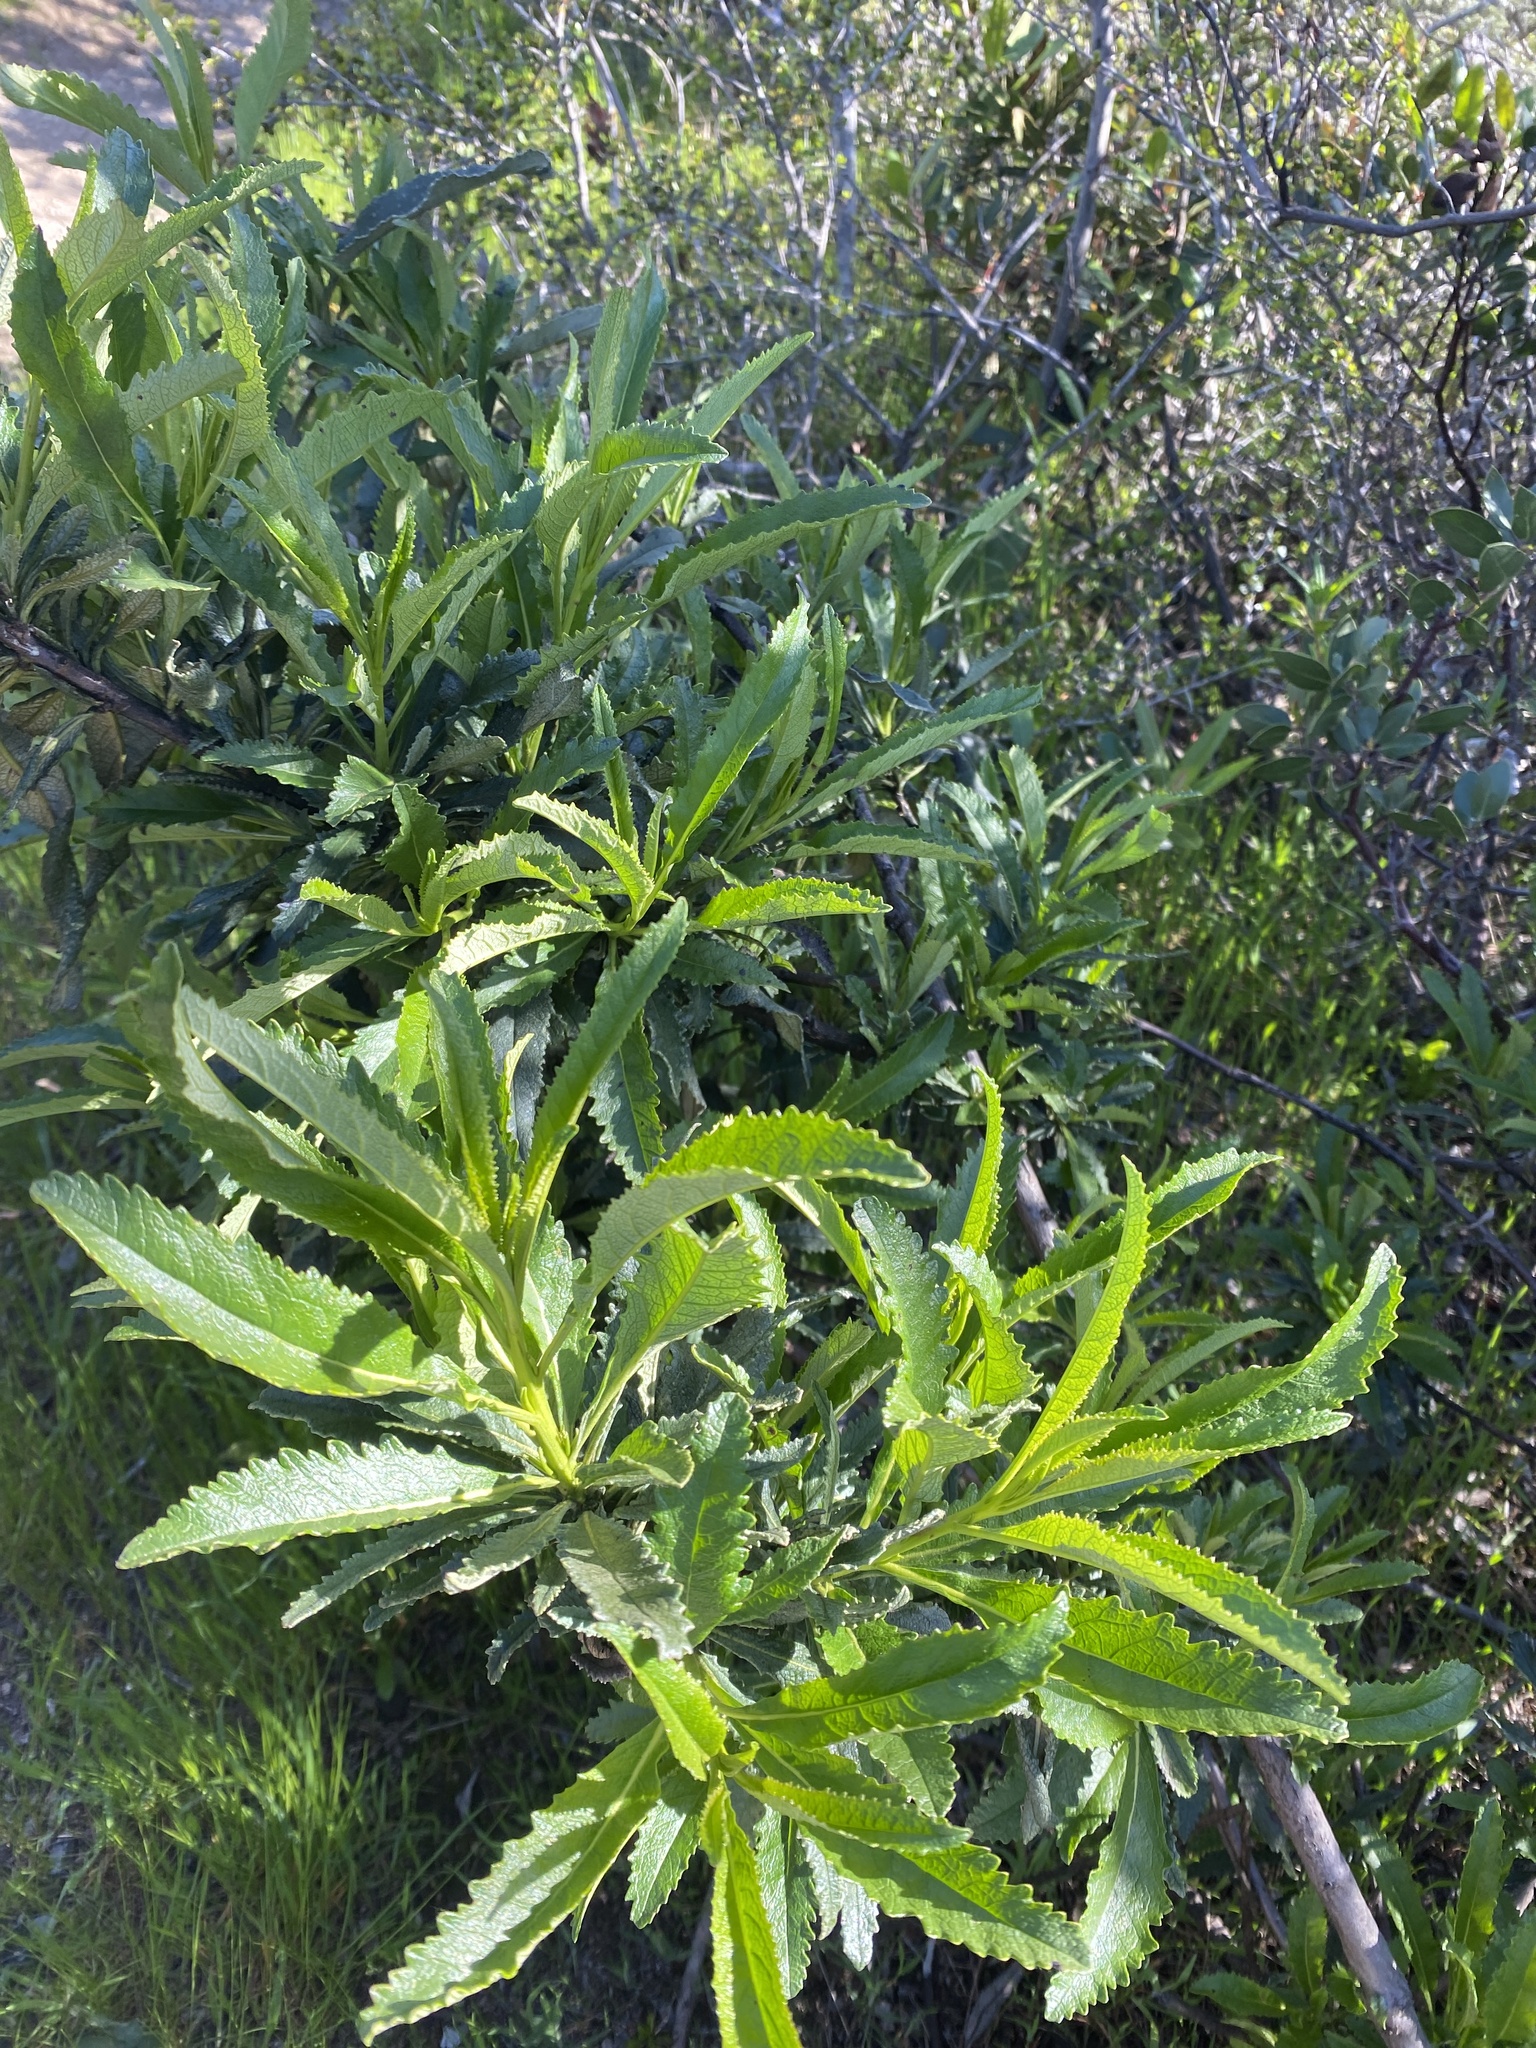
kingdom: Plantae
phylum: Tracheophyta
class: Magnoliopsida
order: Boraginales
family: Namaceae
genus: Eriodictyon
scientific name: Eriodictyon californicum
